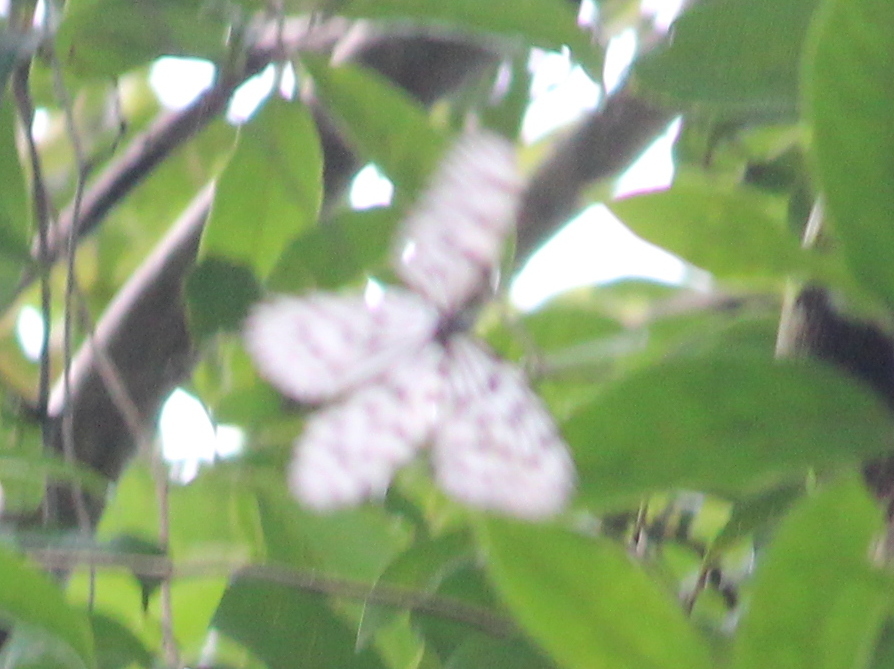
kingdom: Animalia
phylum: Arthropoda
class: Insecta
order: Lepidoptera
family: Nymphalidae
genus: Idea
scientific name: Idea malabarica
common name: Malabar tree-nymph
